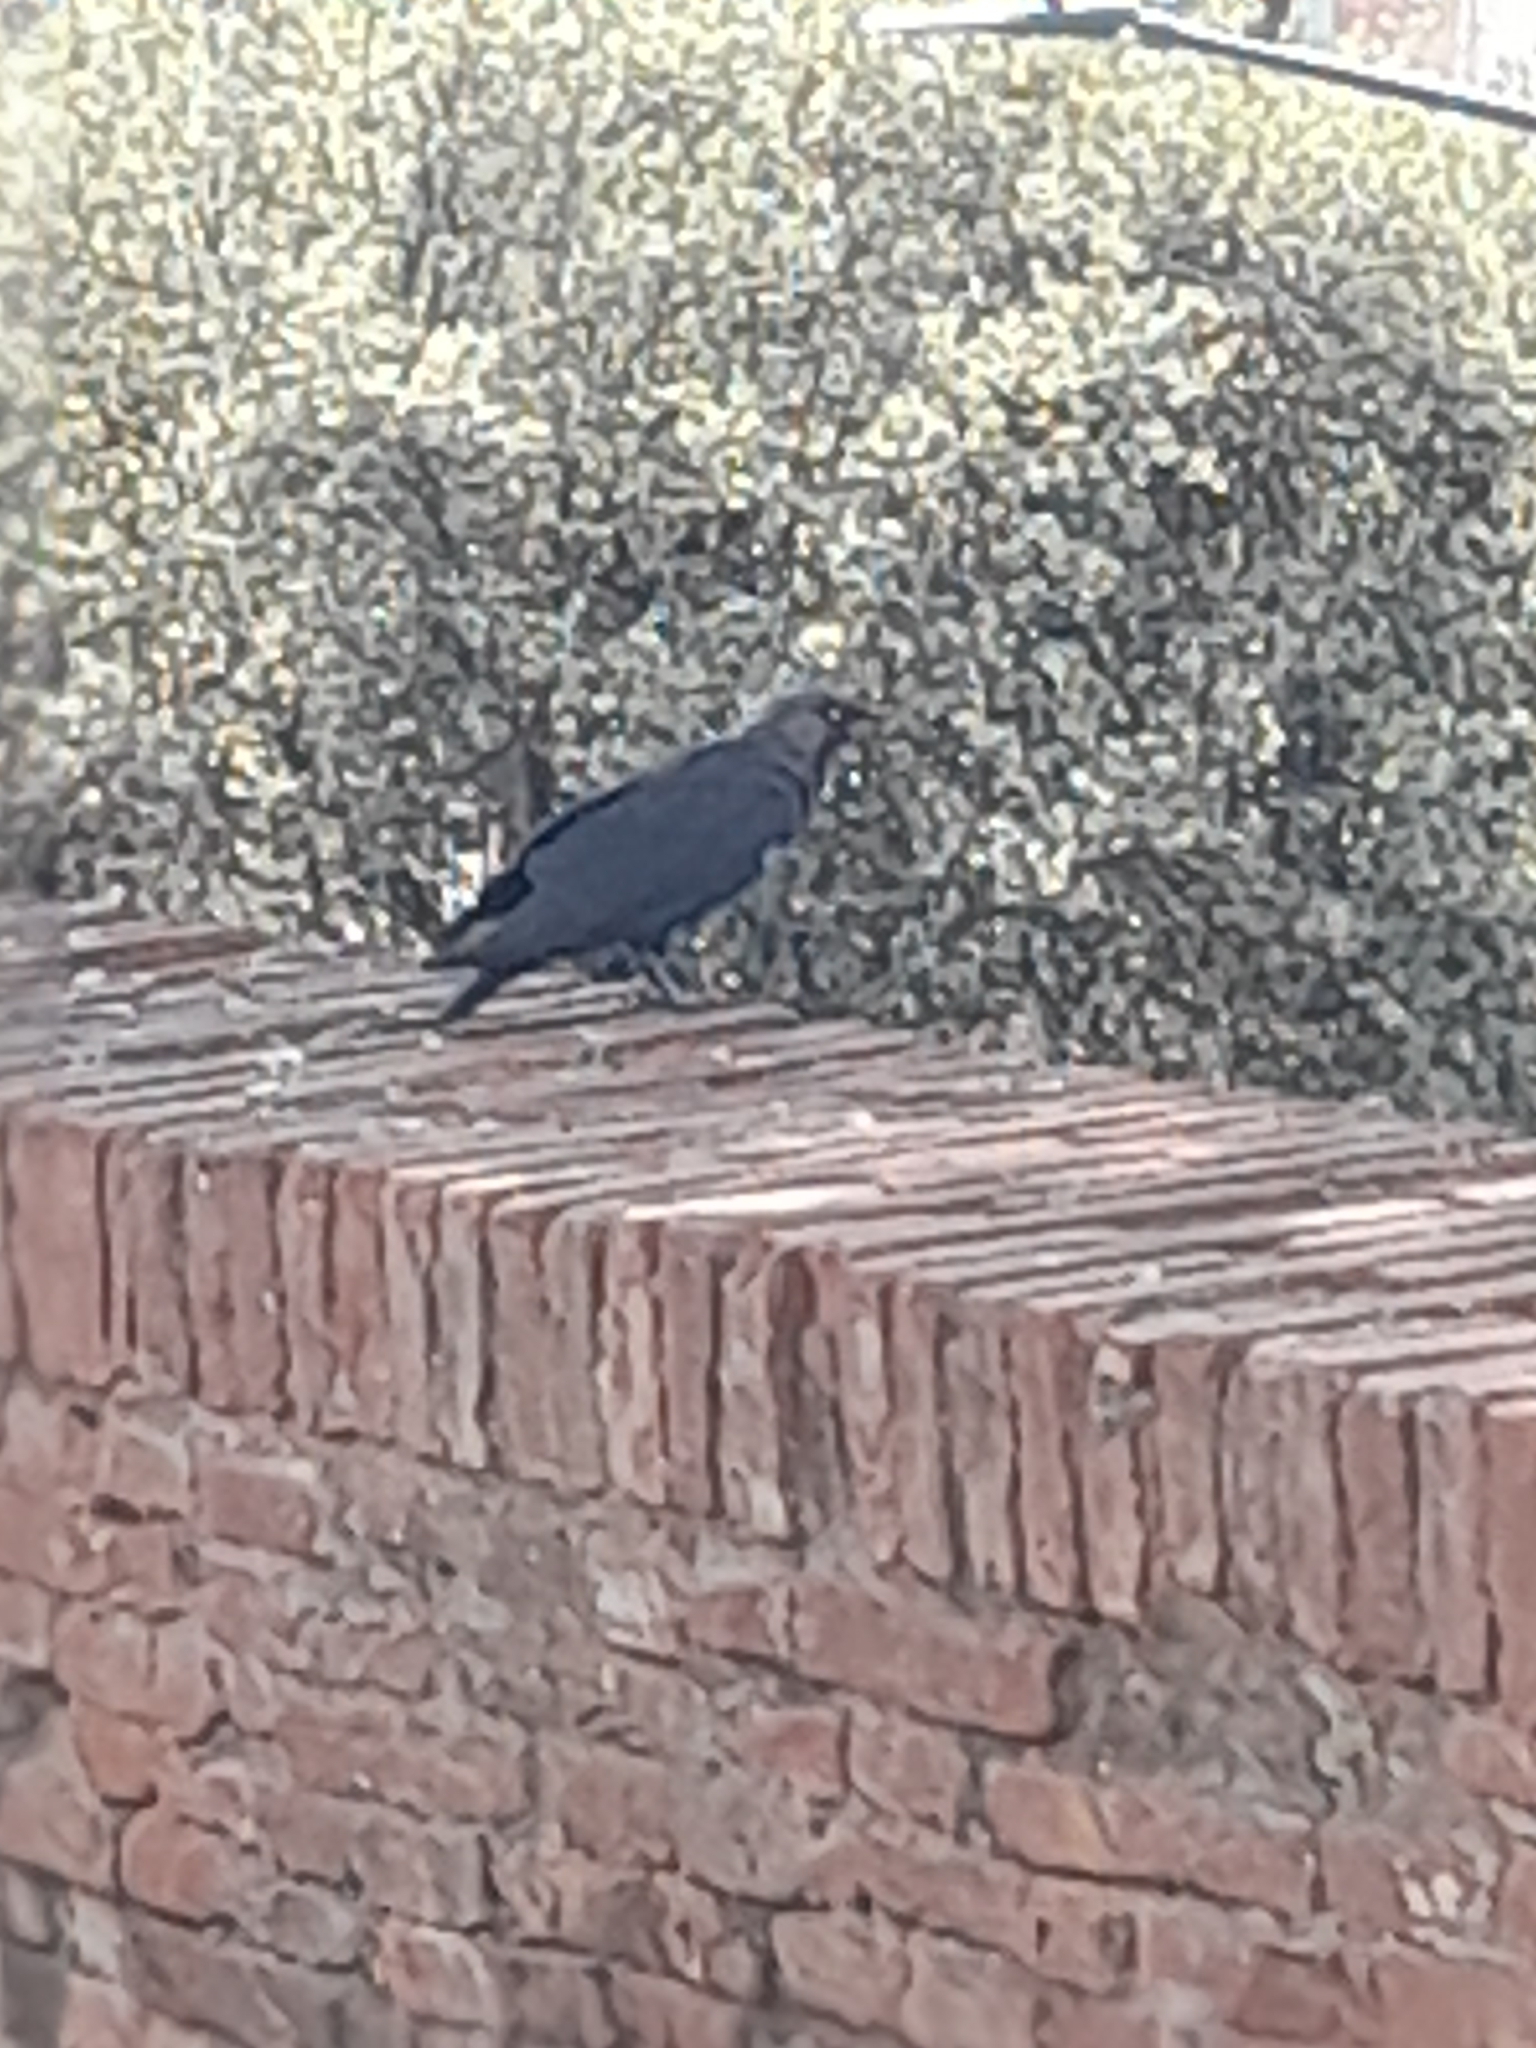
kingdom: Animalia
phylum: Chordata
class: Aves
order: Passeriformes
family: Corvidae
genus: Coloeus
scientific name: Coloeus monedula
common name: Western jackdaw
